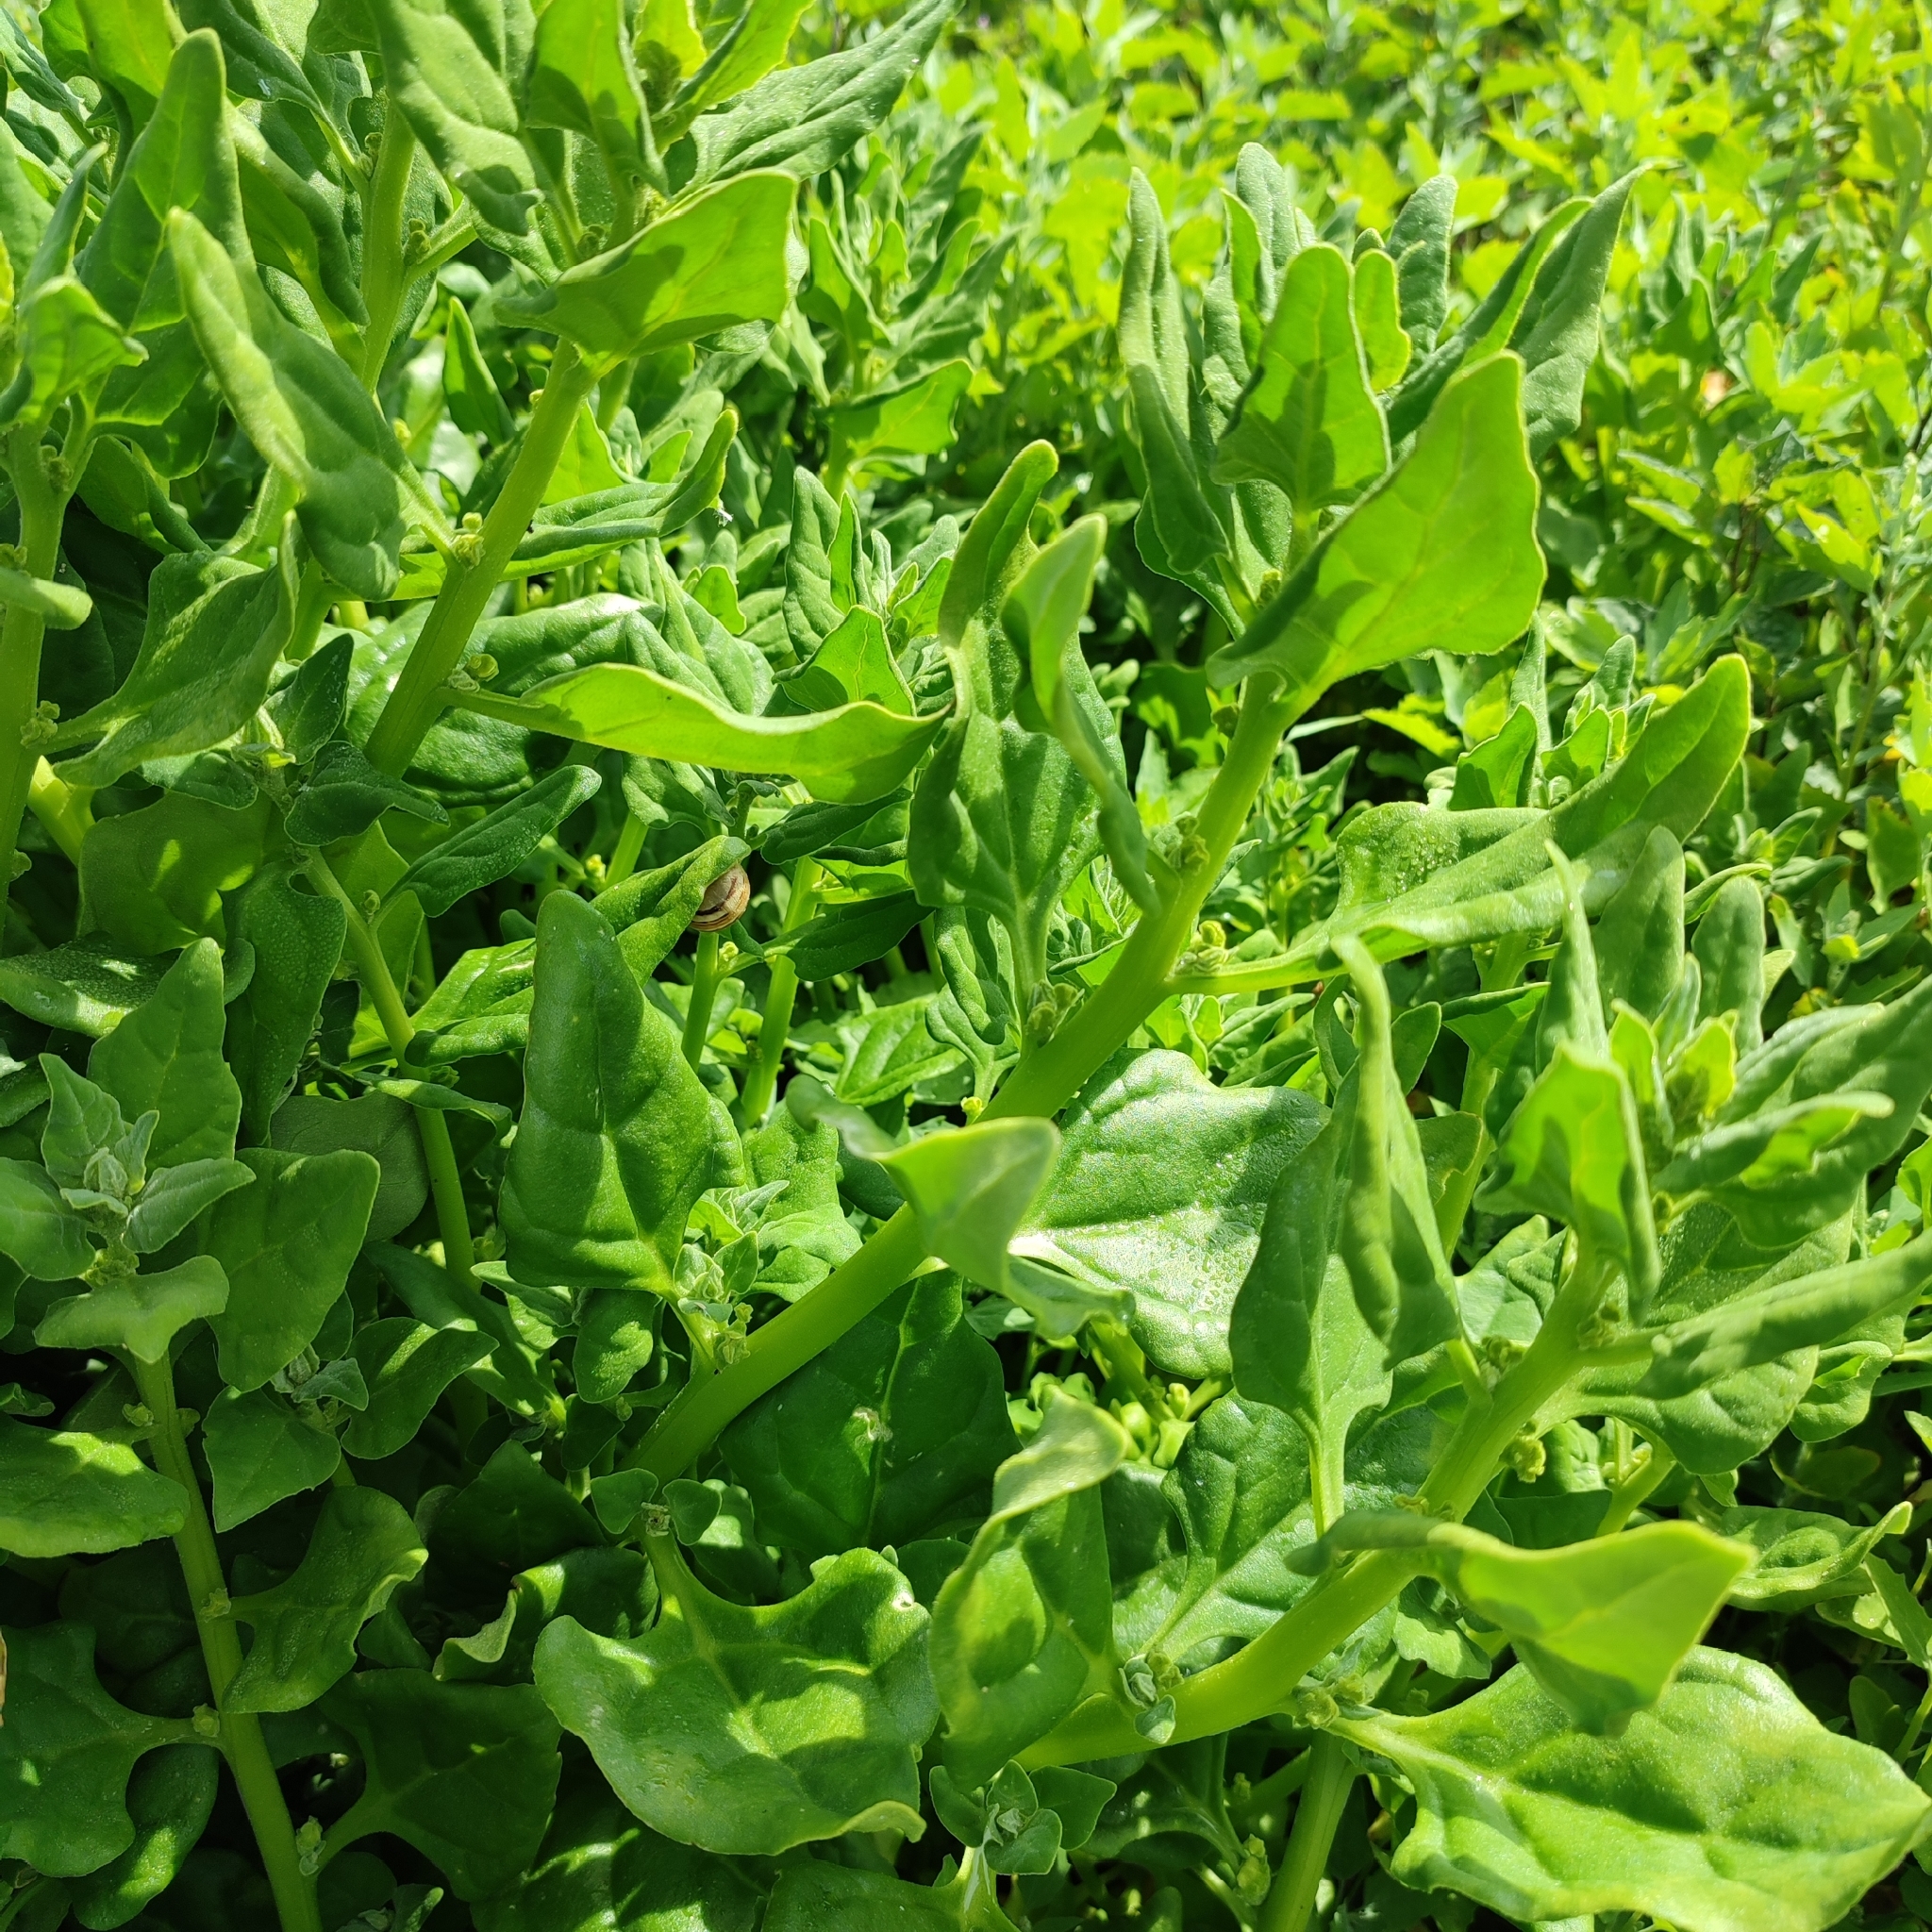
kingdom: Plantae
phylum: Tracheophyta
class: Magnoliopsida
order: Caryophyllales
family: Aizoaceae
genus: Tetragonia
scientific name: Tetragonia tetragonoides
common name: New zealand-spinach
